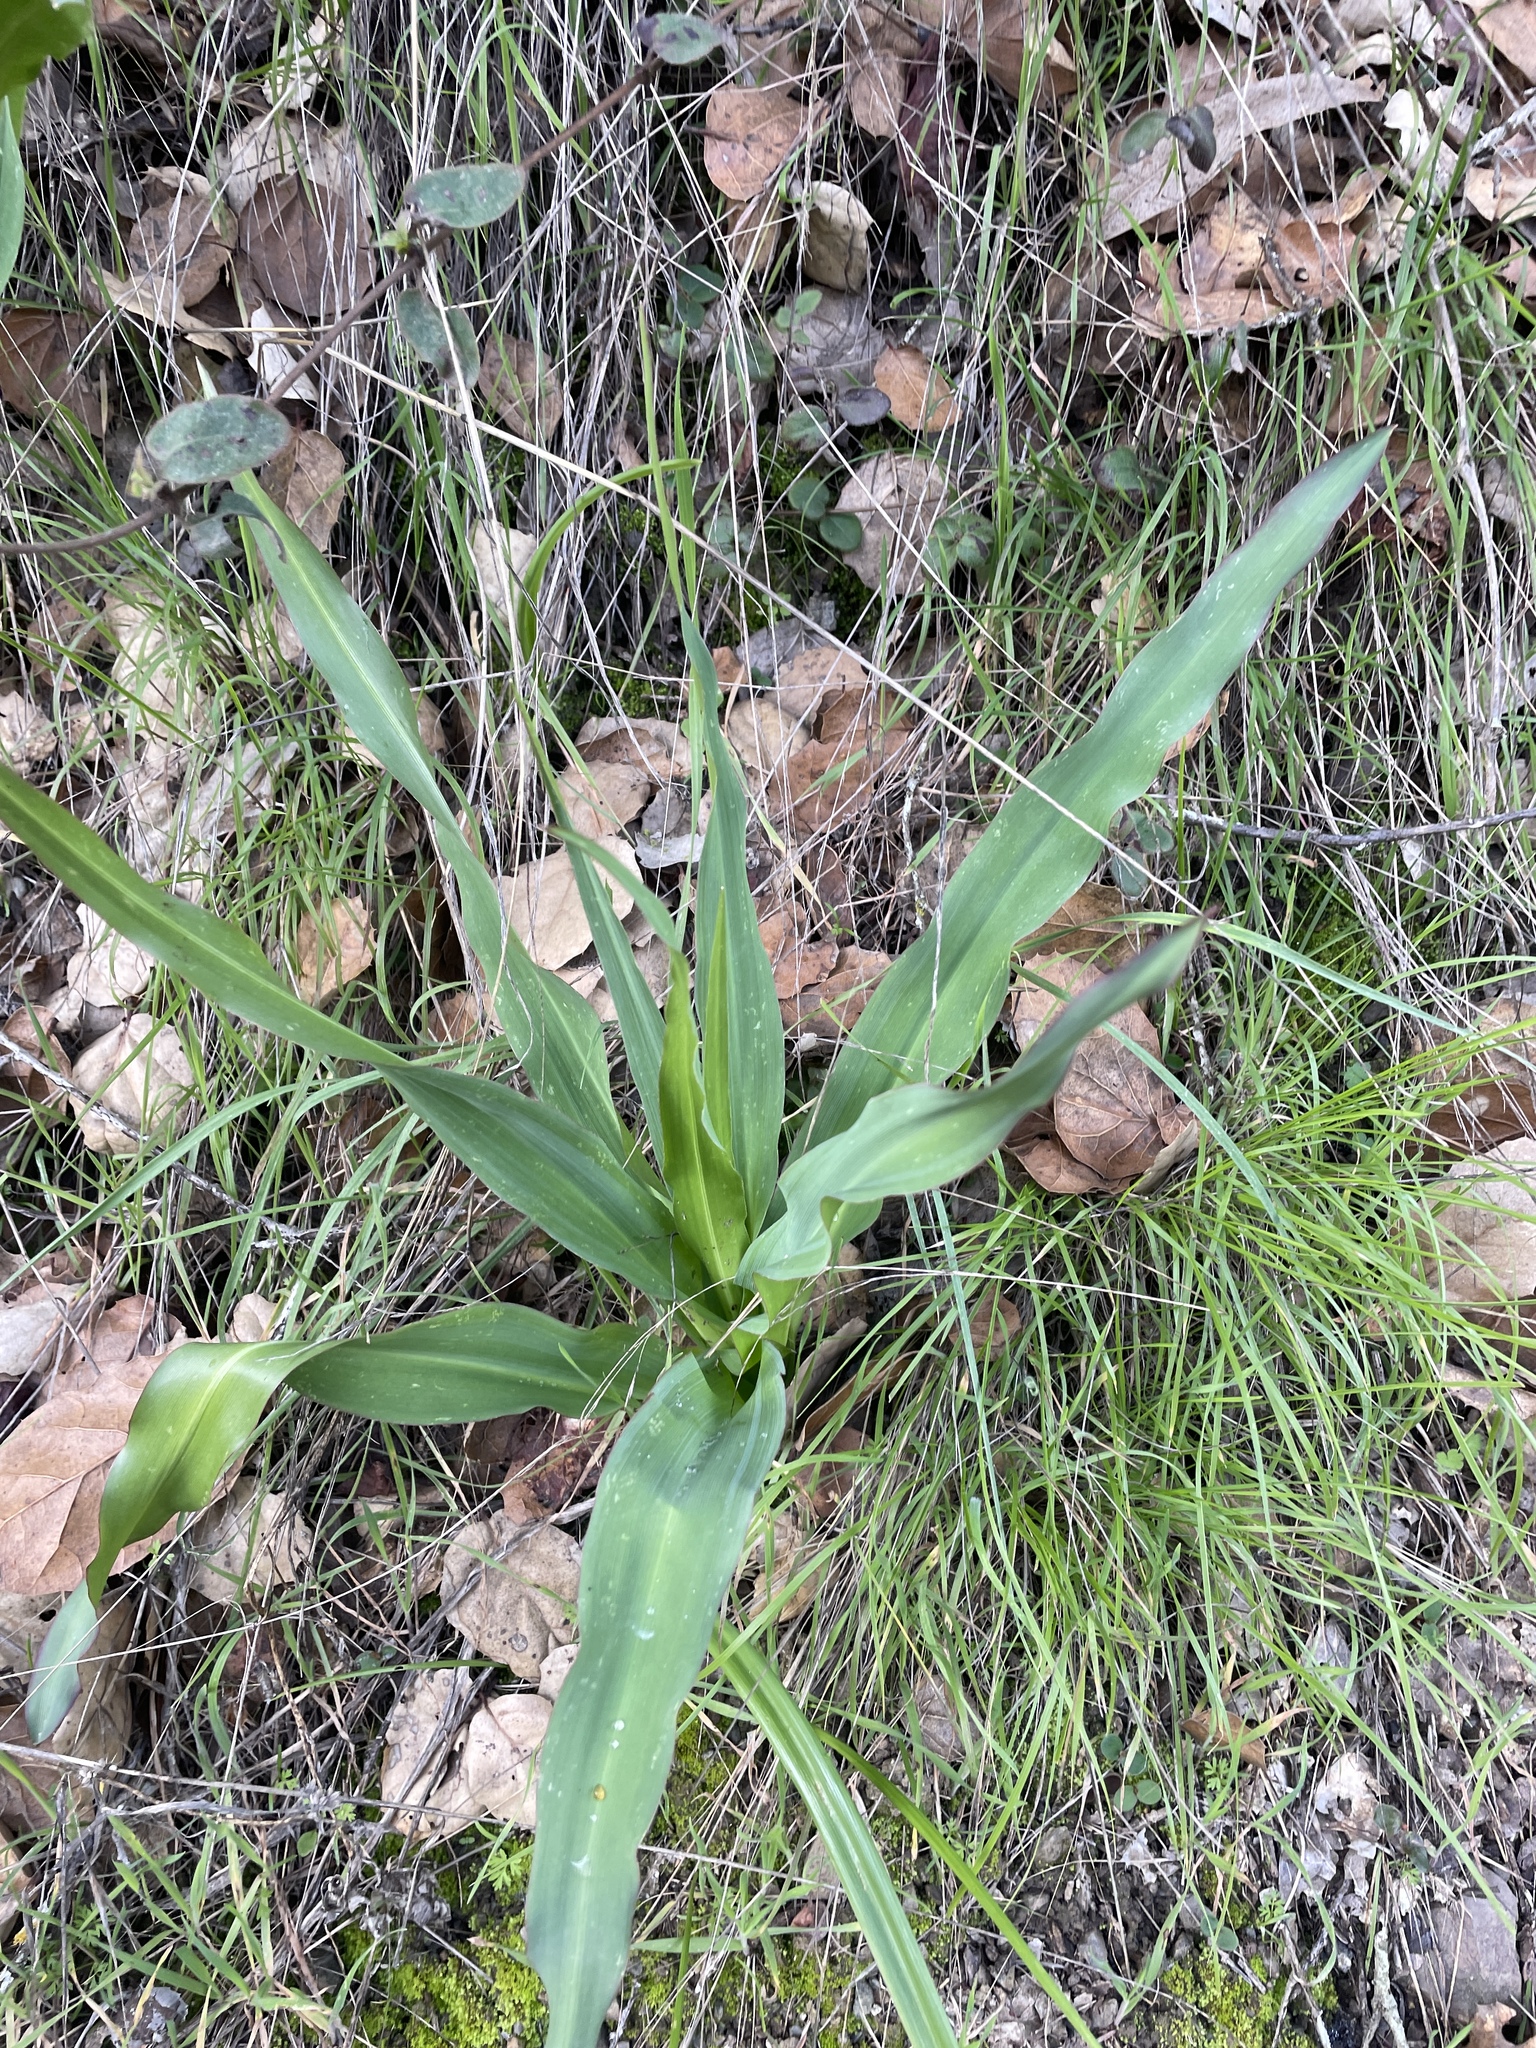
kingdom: Plantae
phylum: Tracheophyta
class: Liliopsida
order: Asparagales
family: Asparagaceae
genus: Chlorogalum
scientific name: Chlorogalum pomeridianum
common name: Amole
